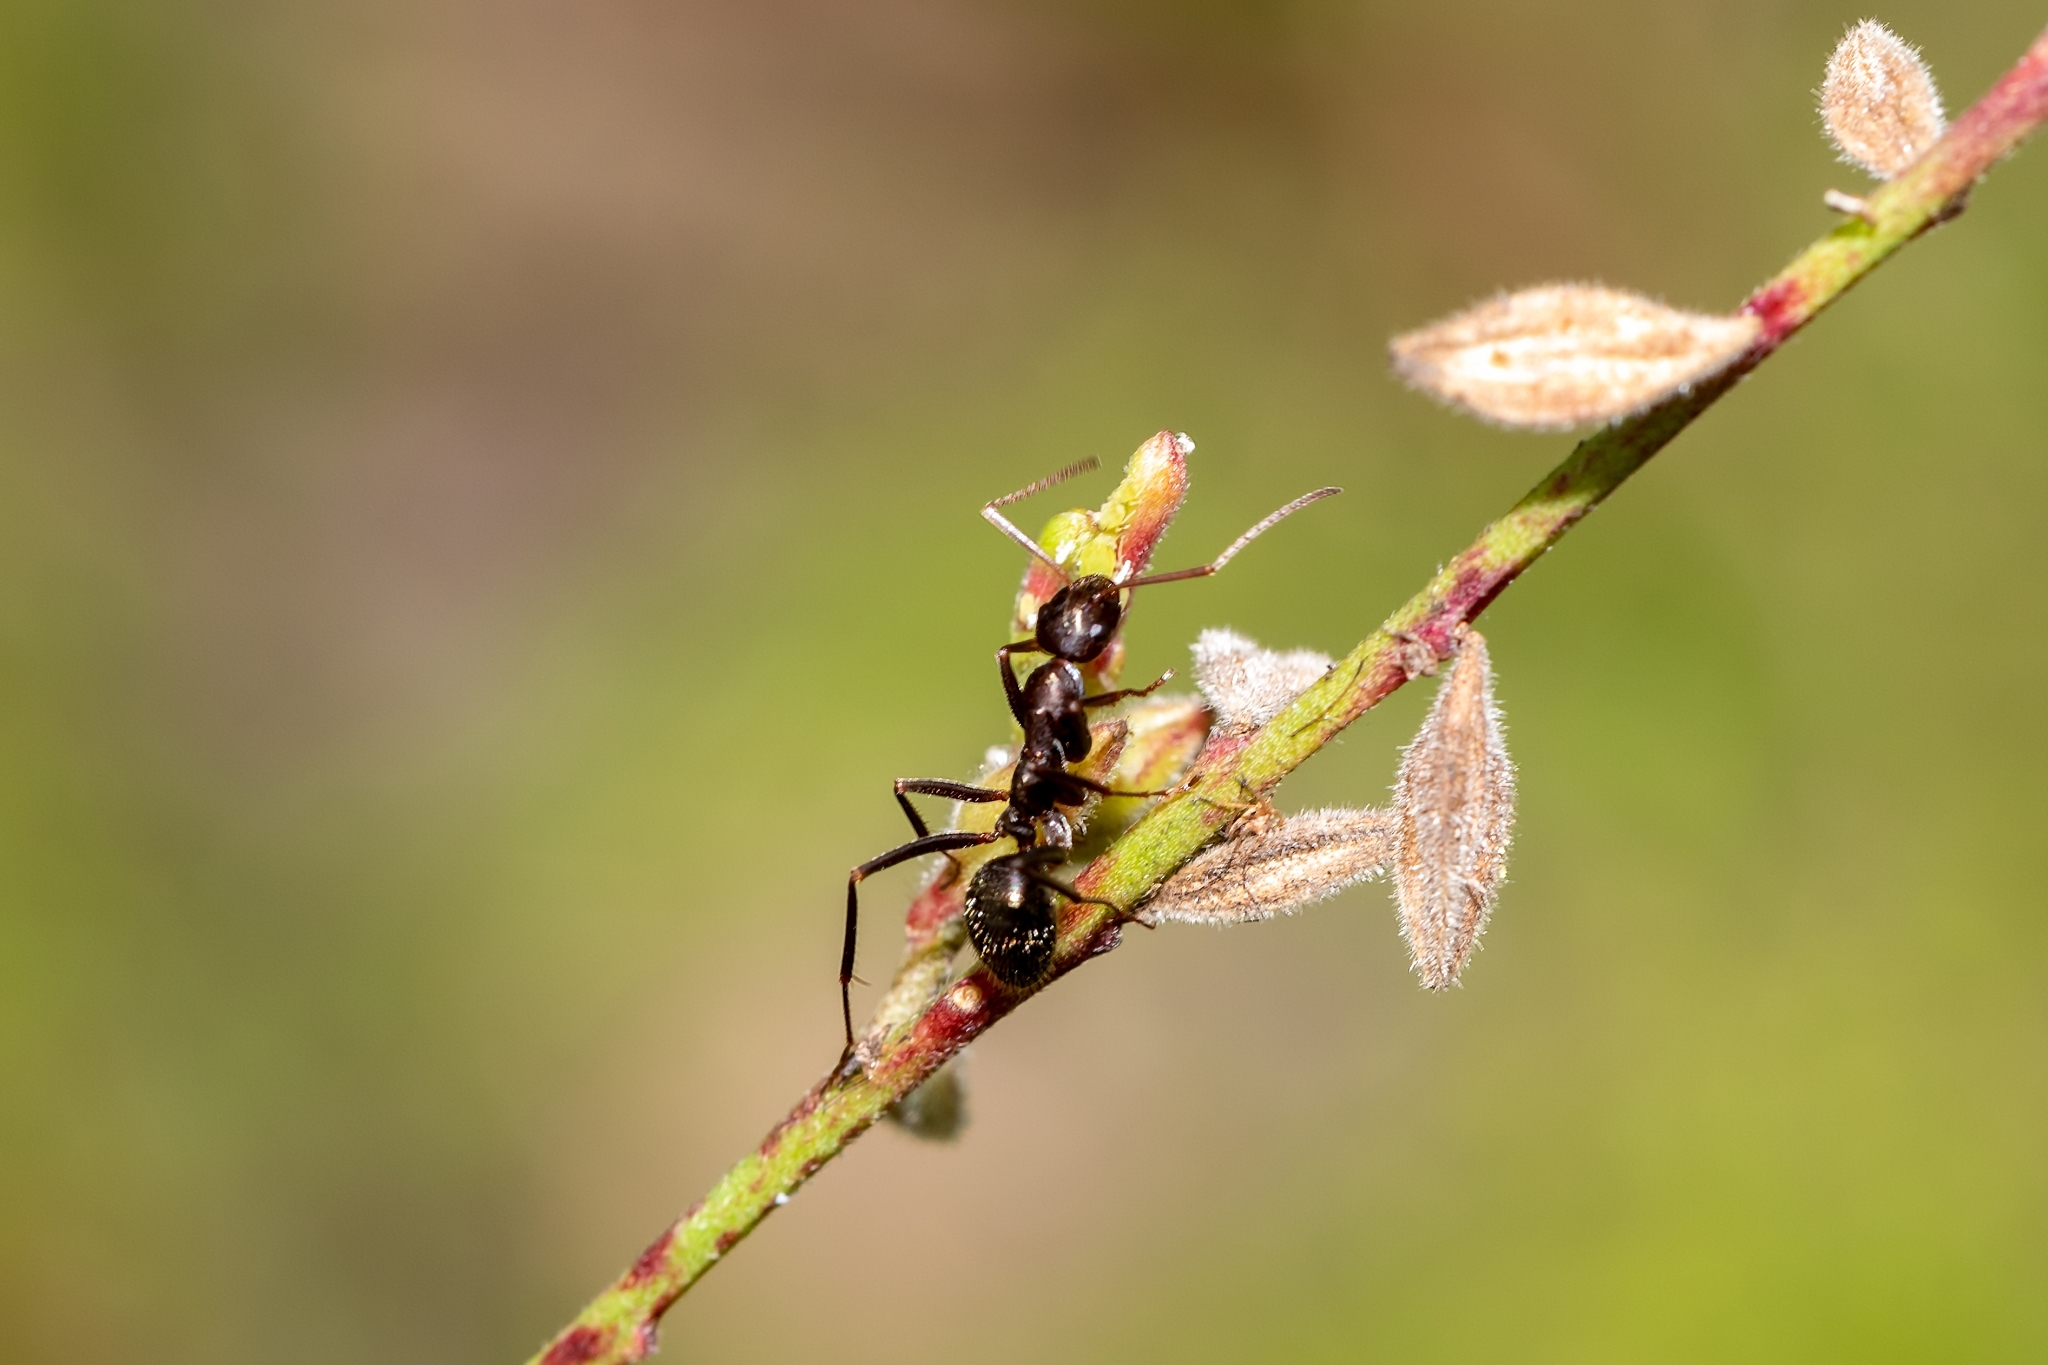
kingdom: Animalia
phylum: Arthropoda
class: Insecta
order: Hymenoptera
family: Formicidae
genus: Formica
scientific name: Formica archboldi
